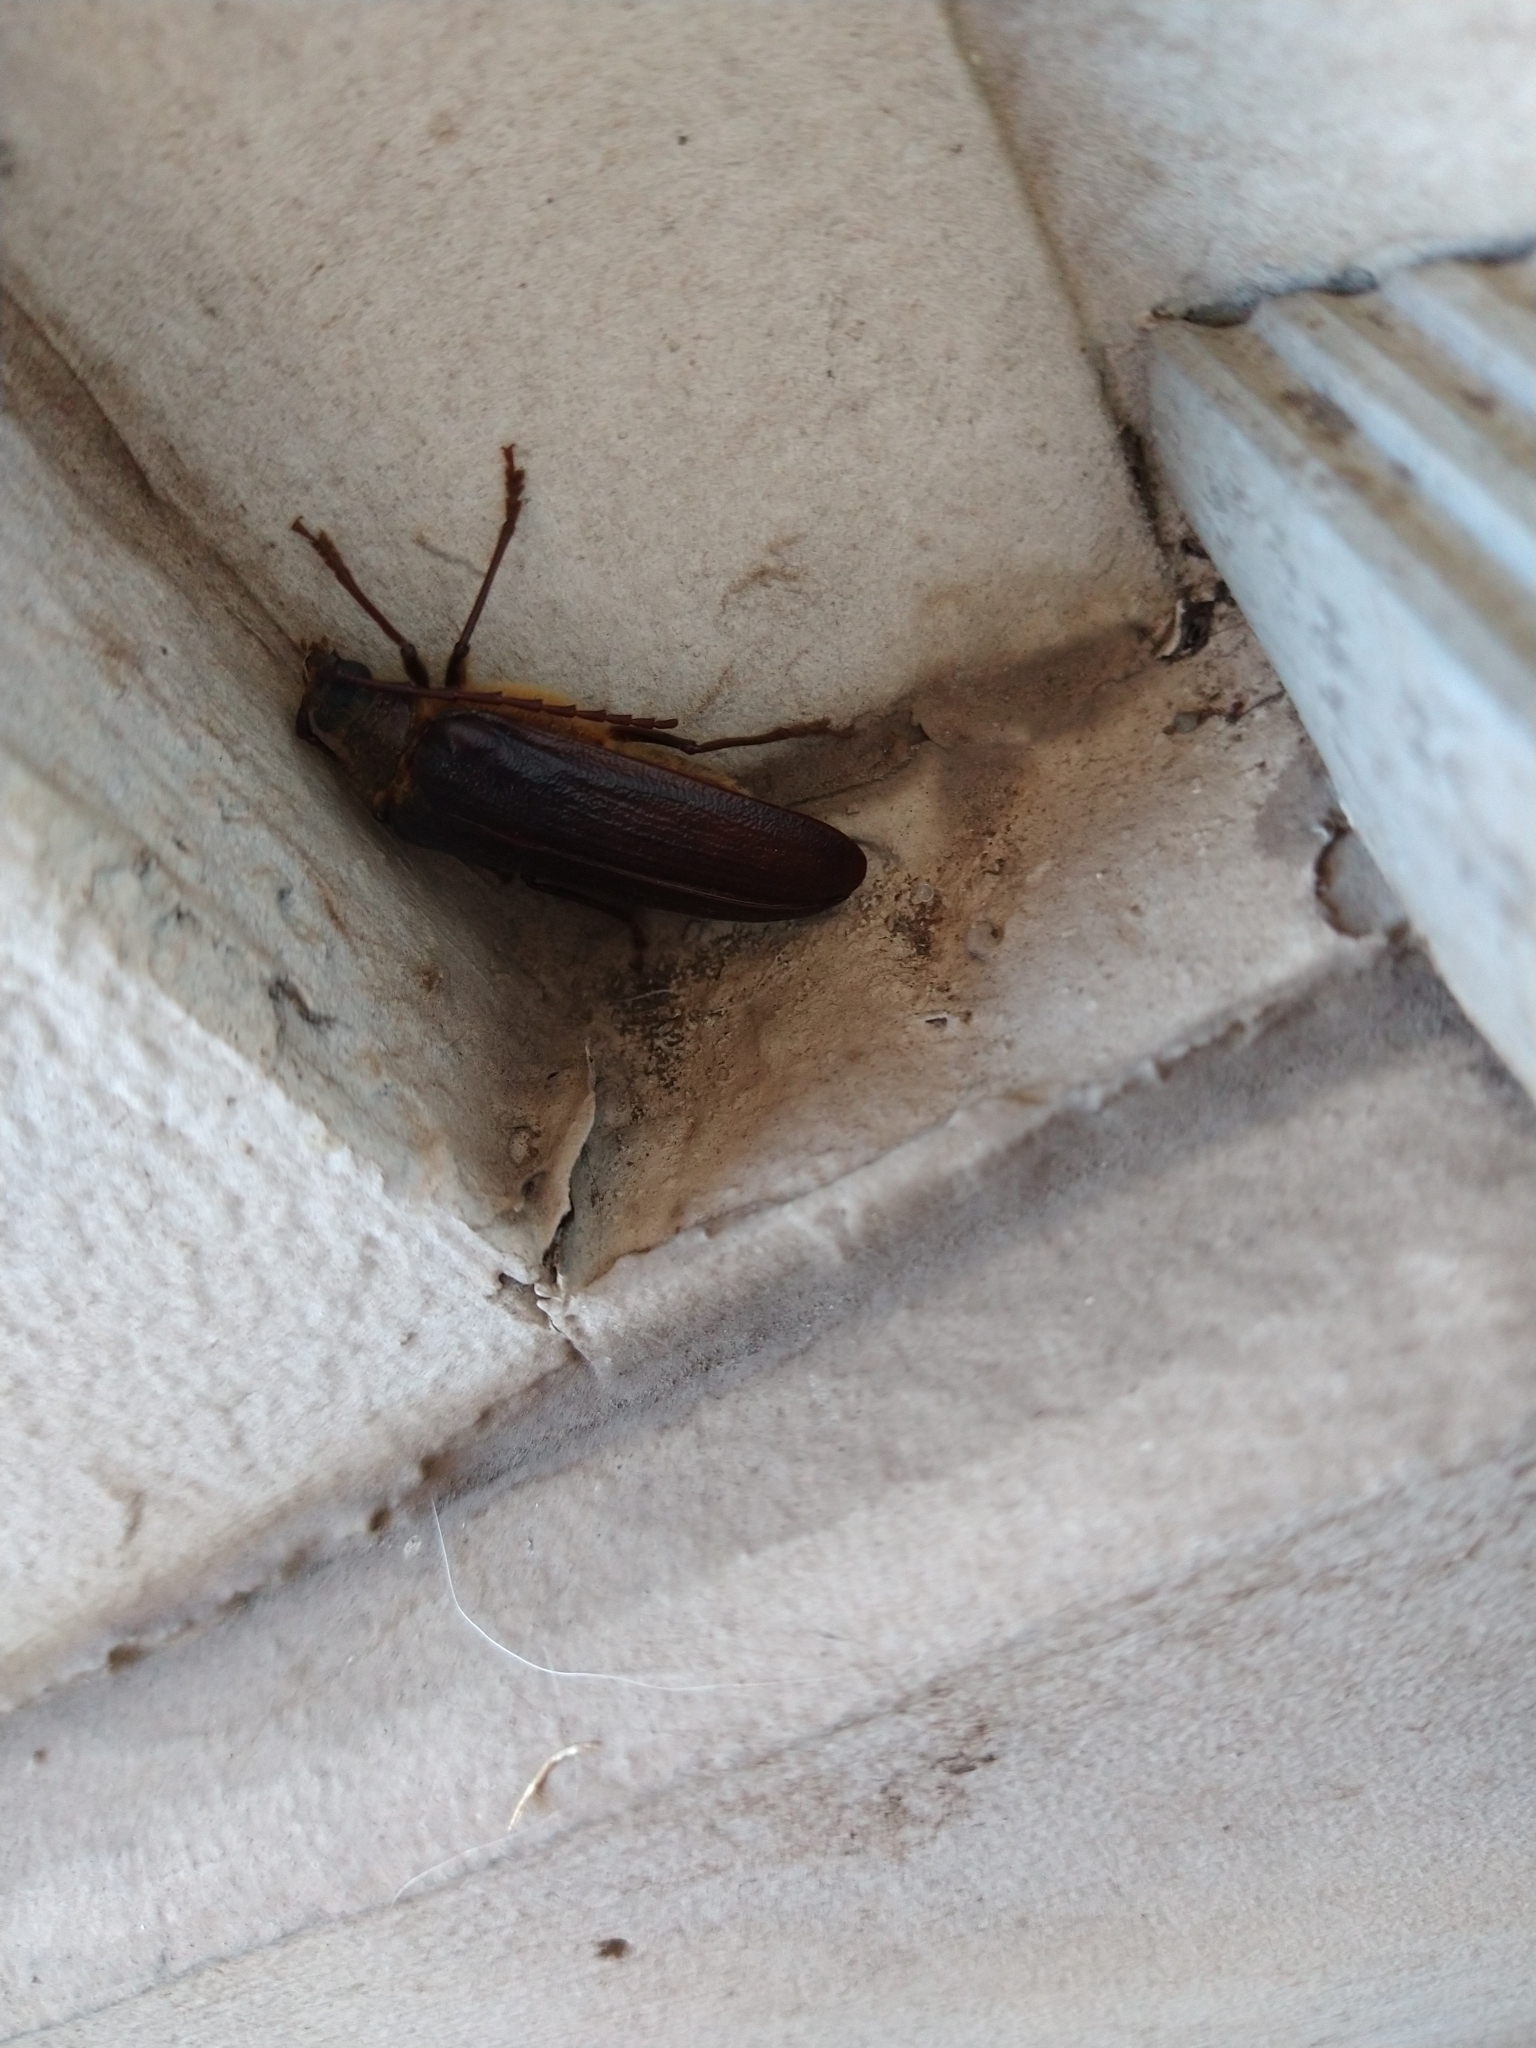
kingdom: Animalia
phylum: Arthropoda
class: Insecta
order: Coleoptera
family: Cerambycidae
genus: Tragosoma
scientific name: Tragosoma harrisii
